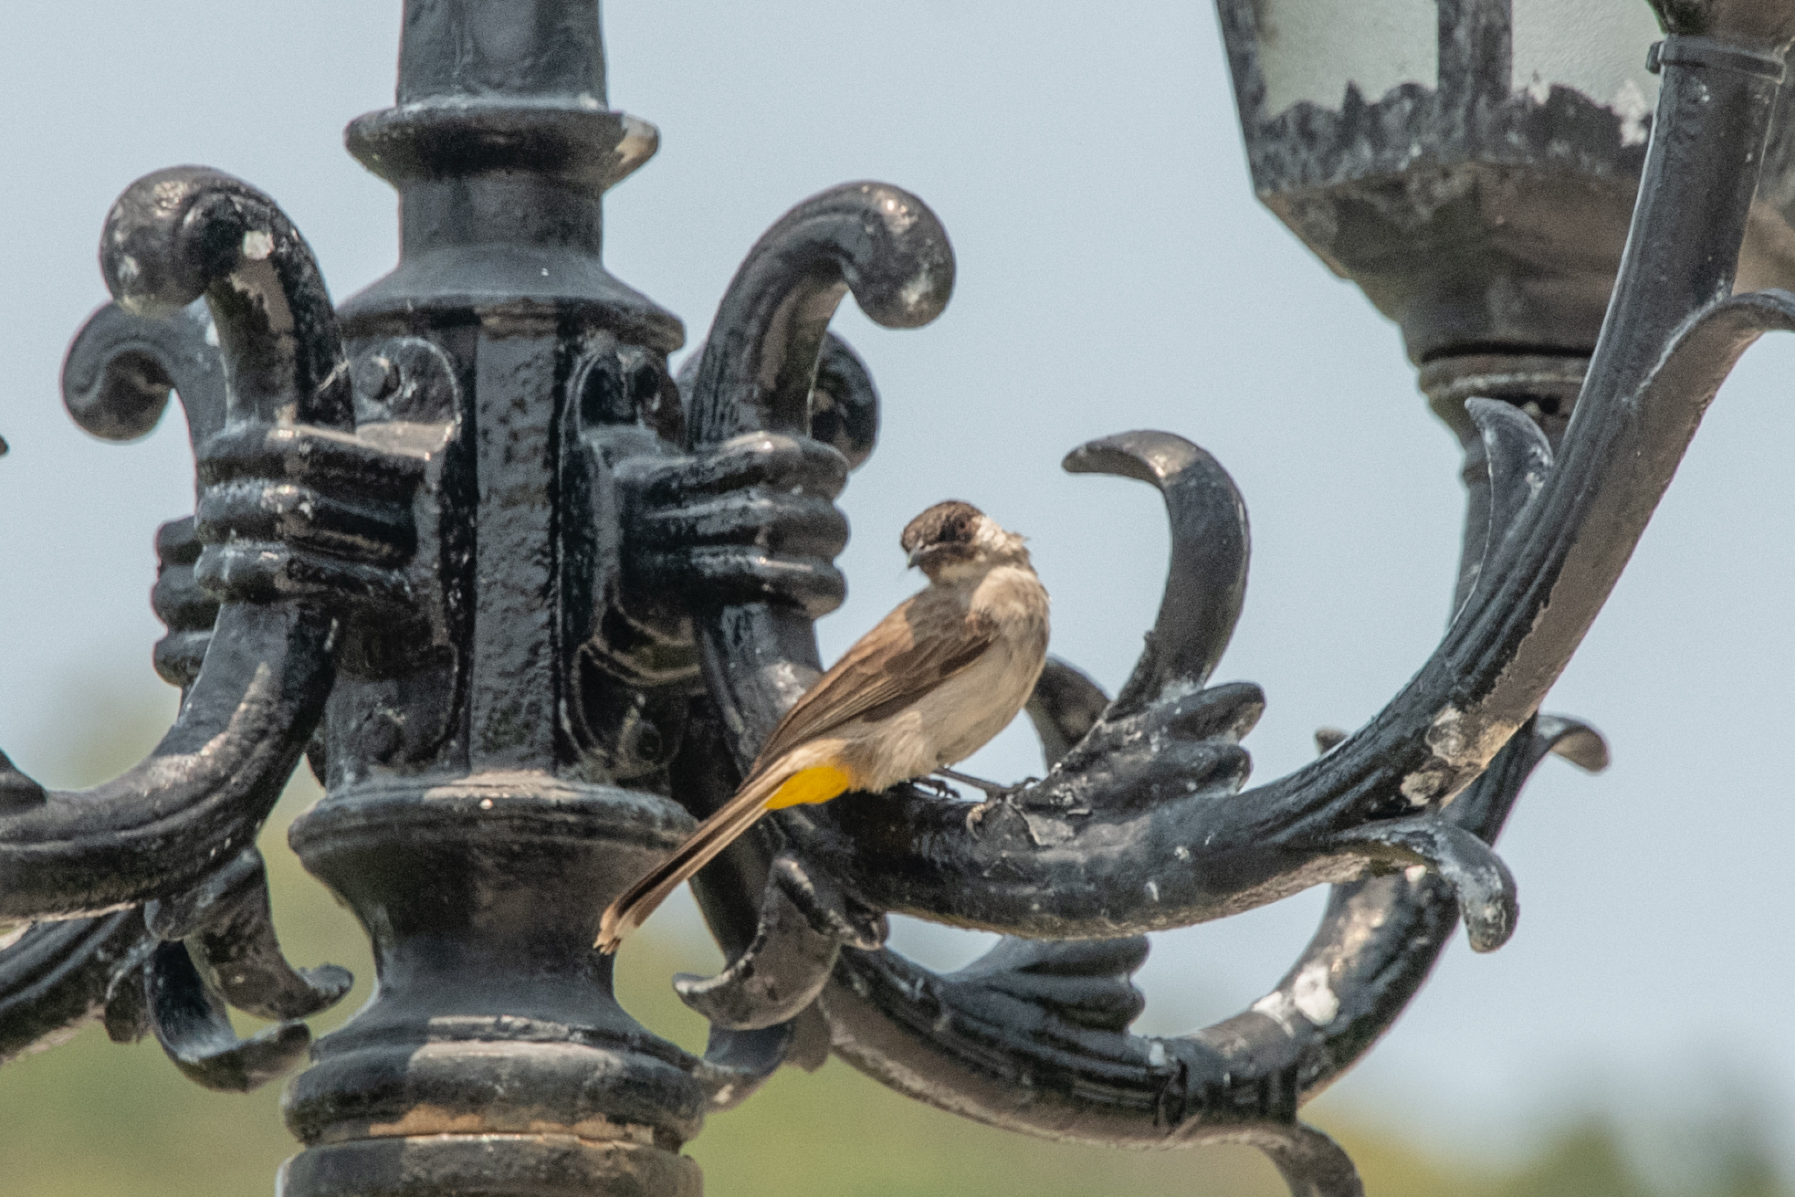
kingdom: Animalia
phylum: Chordata
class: Aves
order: Passeriformes
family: Pycnonotidae
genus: Pycnonotus
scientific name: Pycnonotus aurigaster
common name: Sooty-headed bulbul
